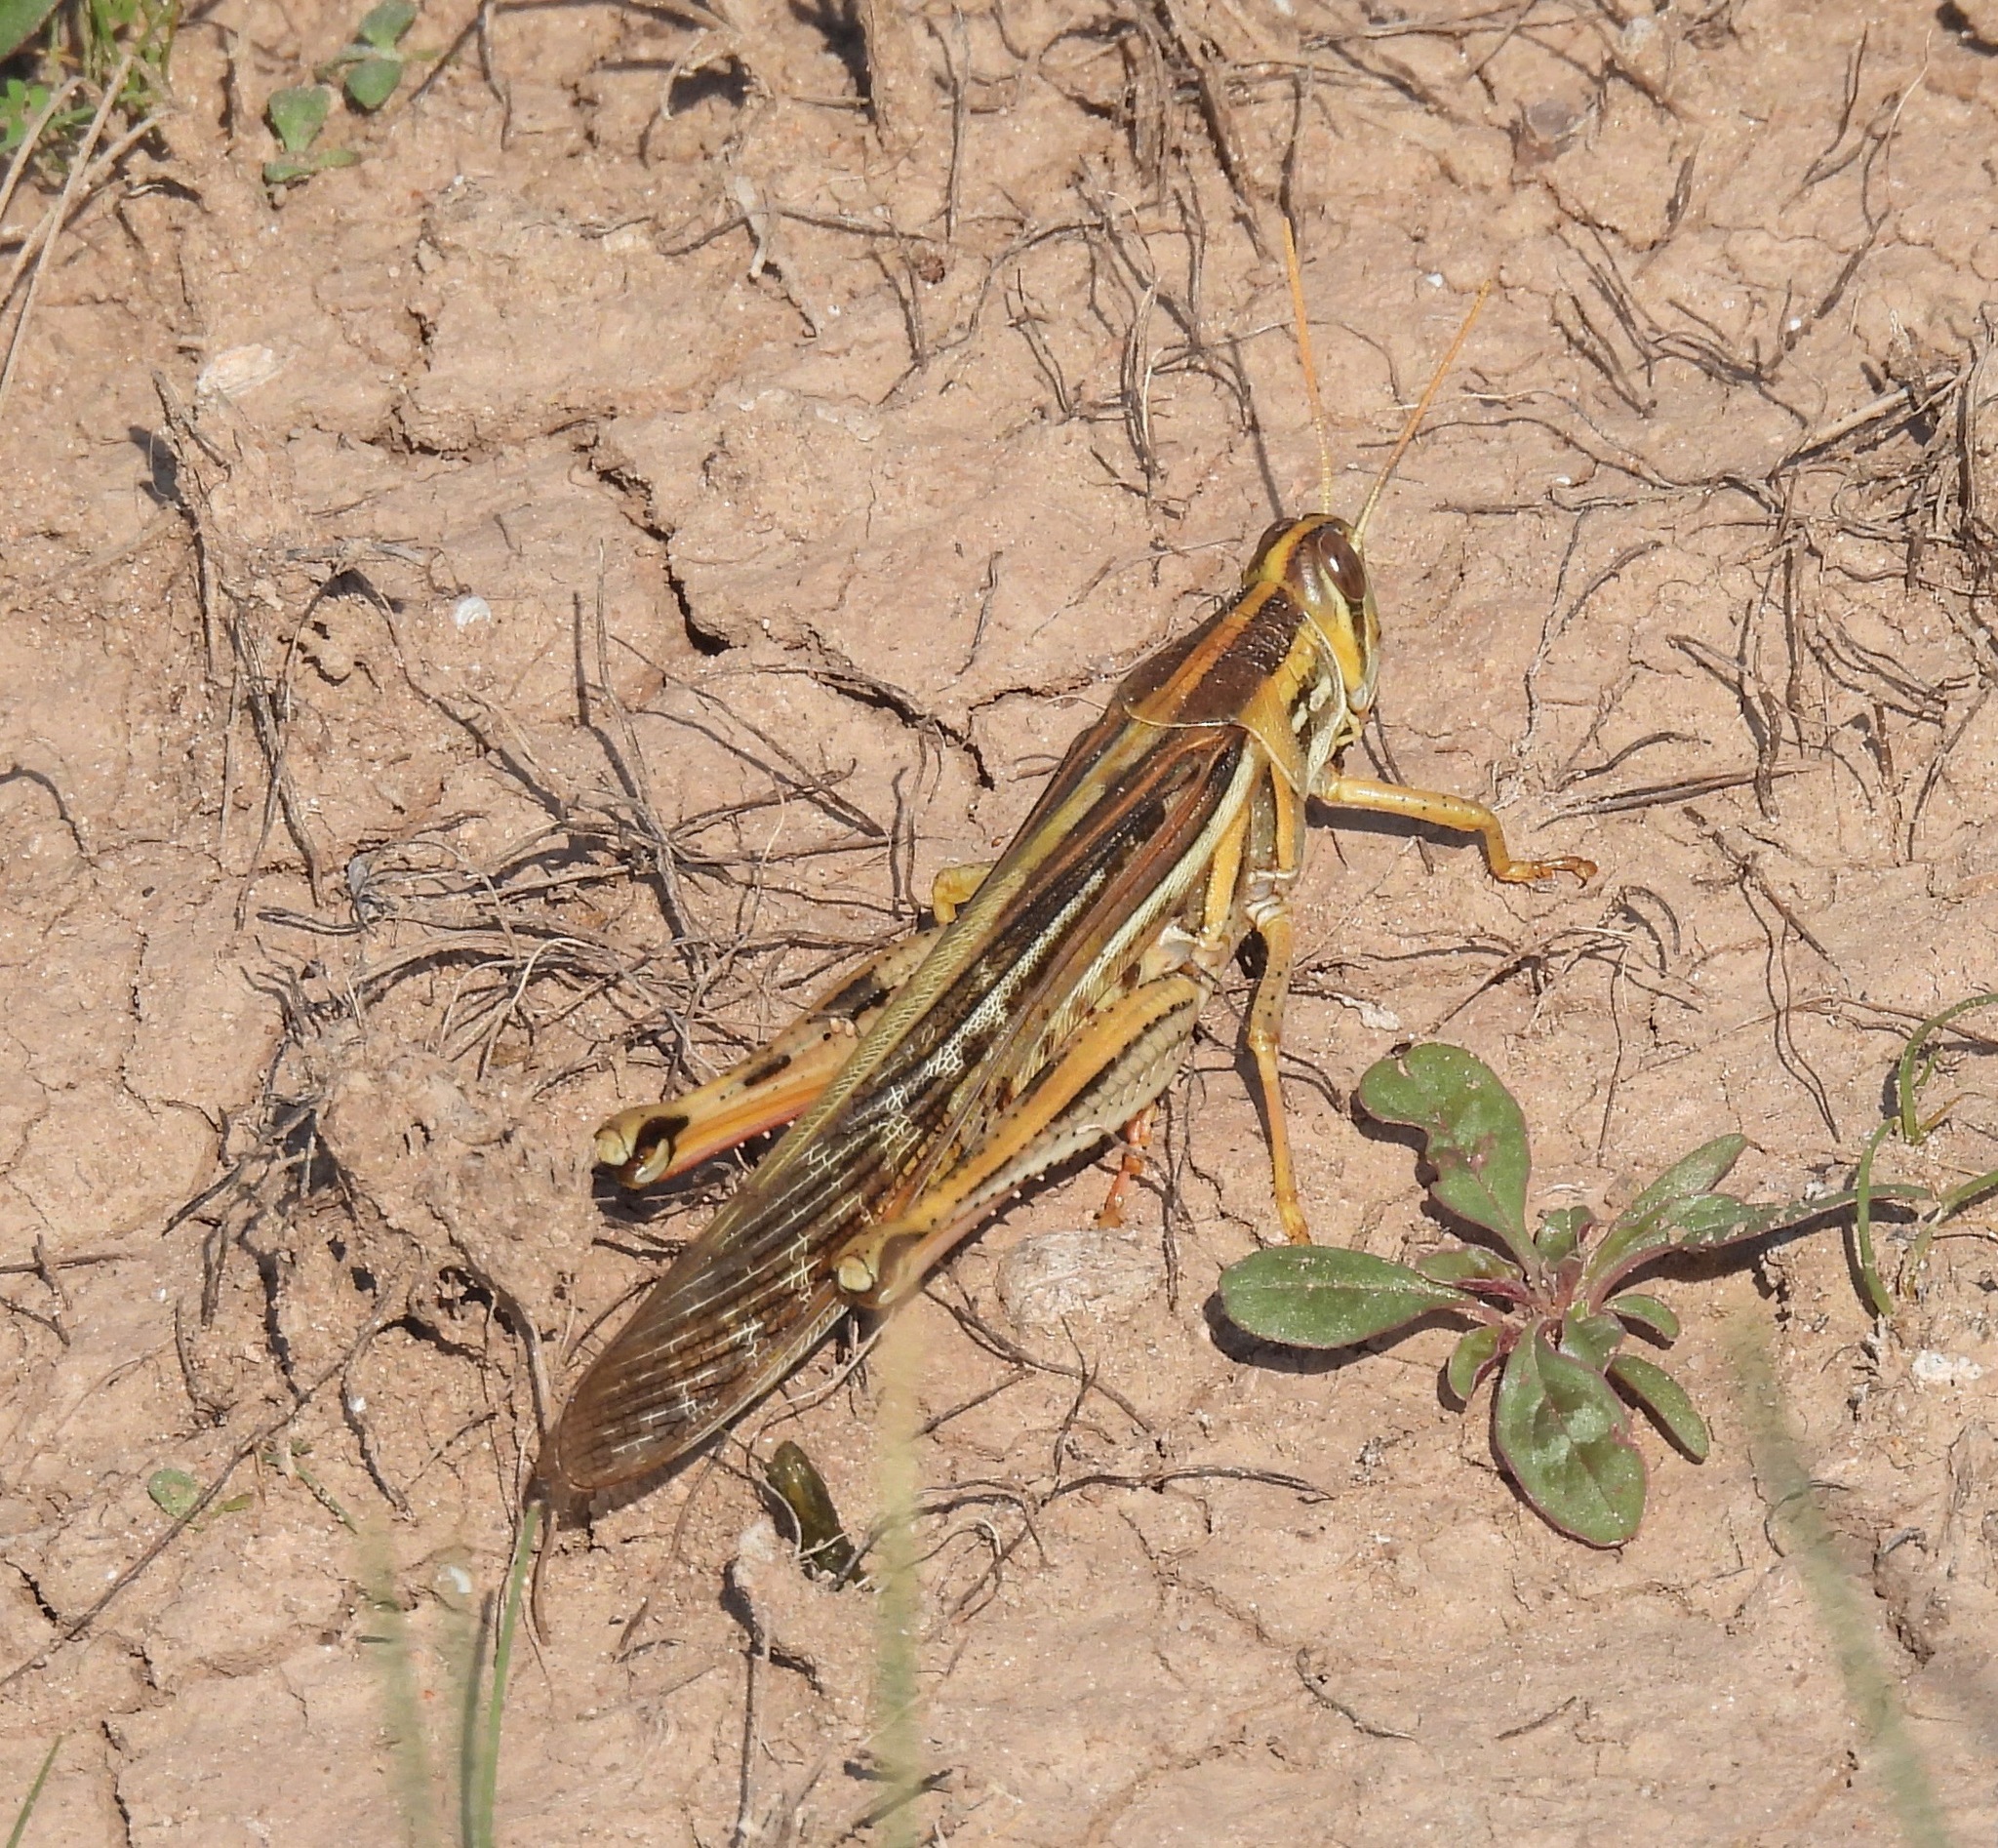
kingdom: Animalia
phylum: Arthropoda
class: Insecta
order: Orthoptera
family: Acrididae
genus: Schistocerca
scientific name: Schistocerca americana
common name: American bird locust
